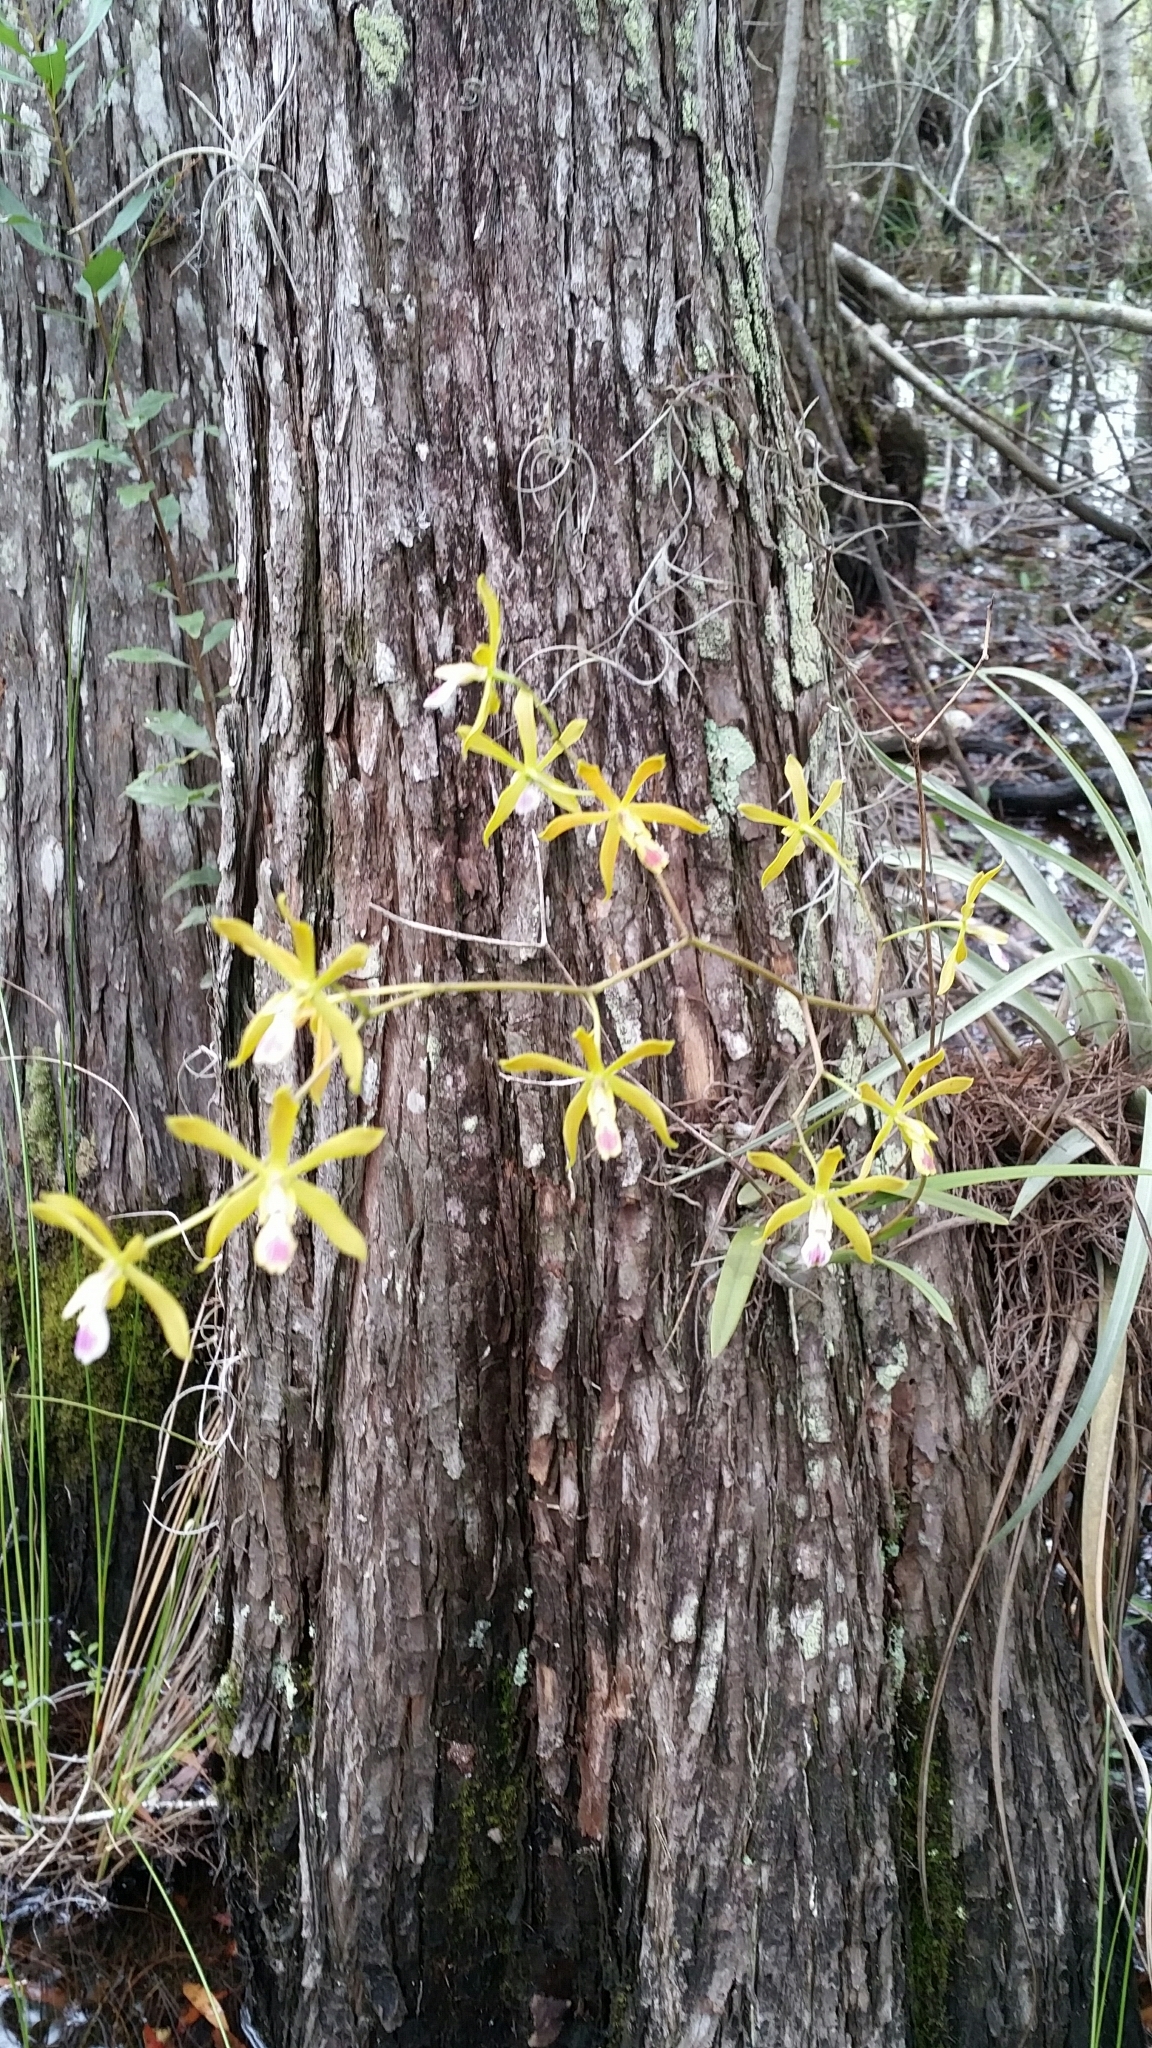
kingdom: Plantae
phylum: Tracheophyta
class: Liliopsida
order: Asparagales
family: Orchidaceae
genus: Encyclia
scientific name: Encyclia tampensis
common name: Florida butterfly orchid
